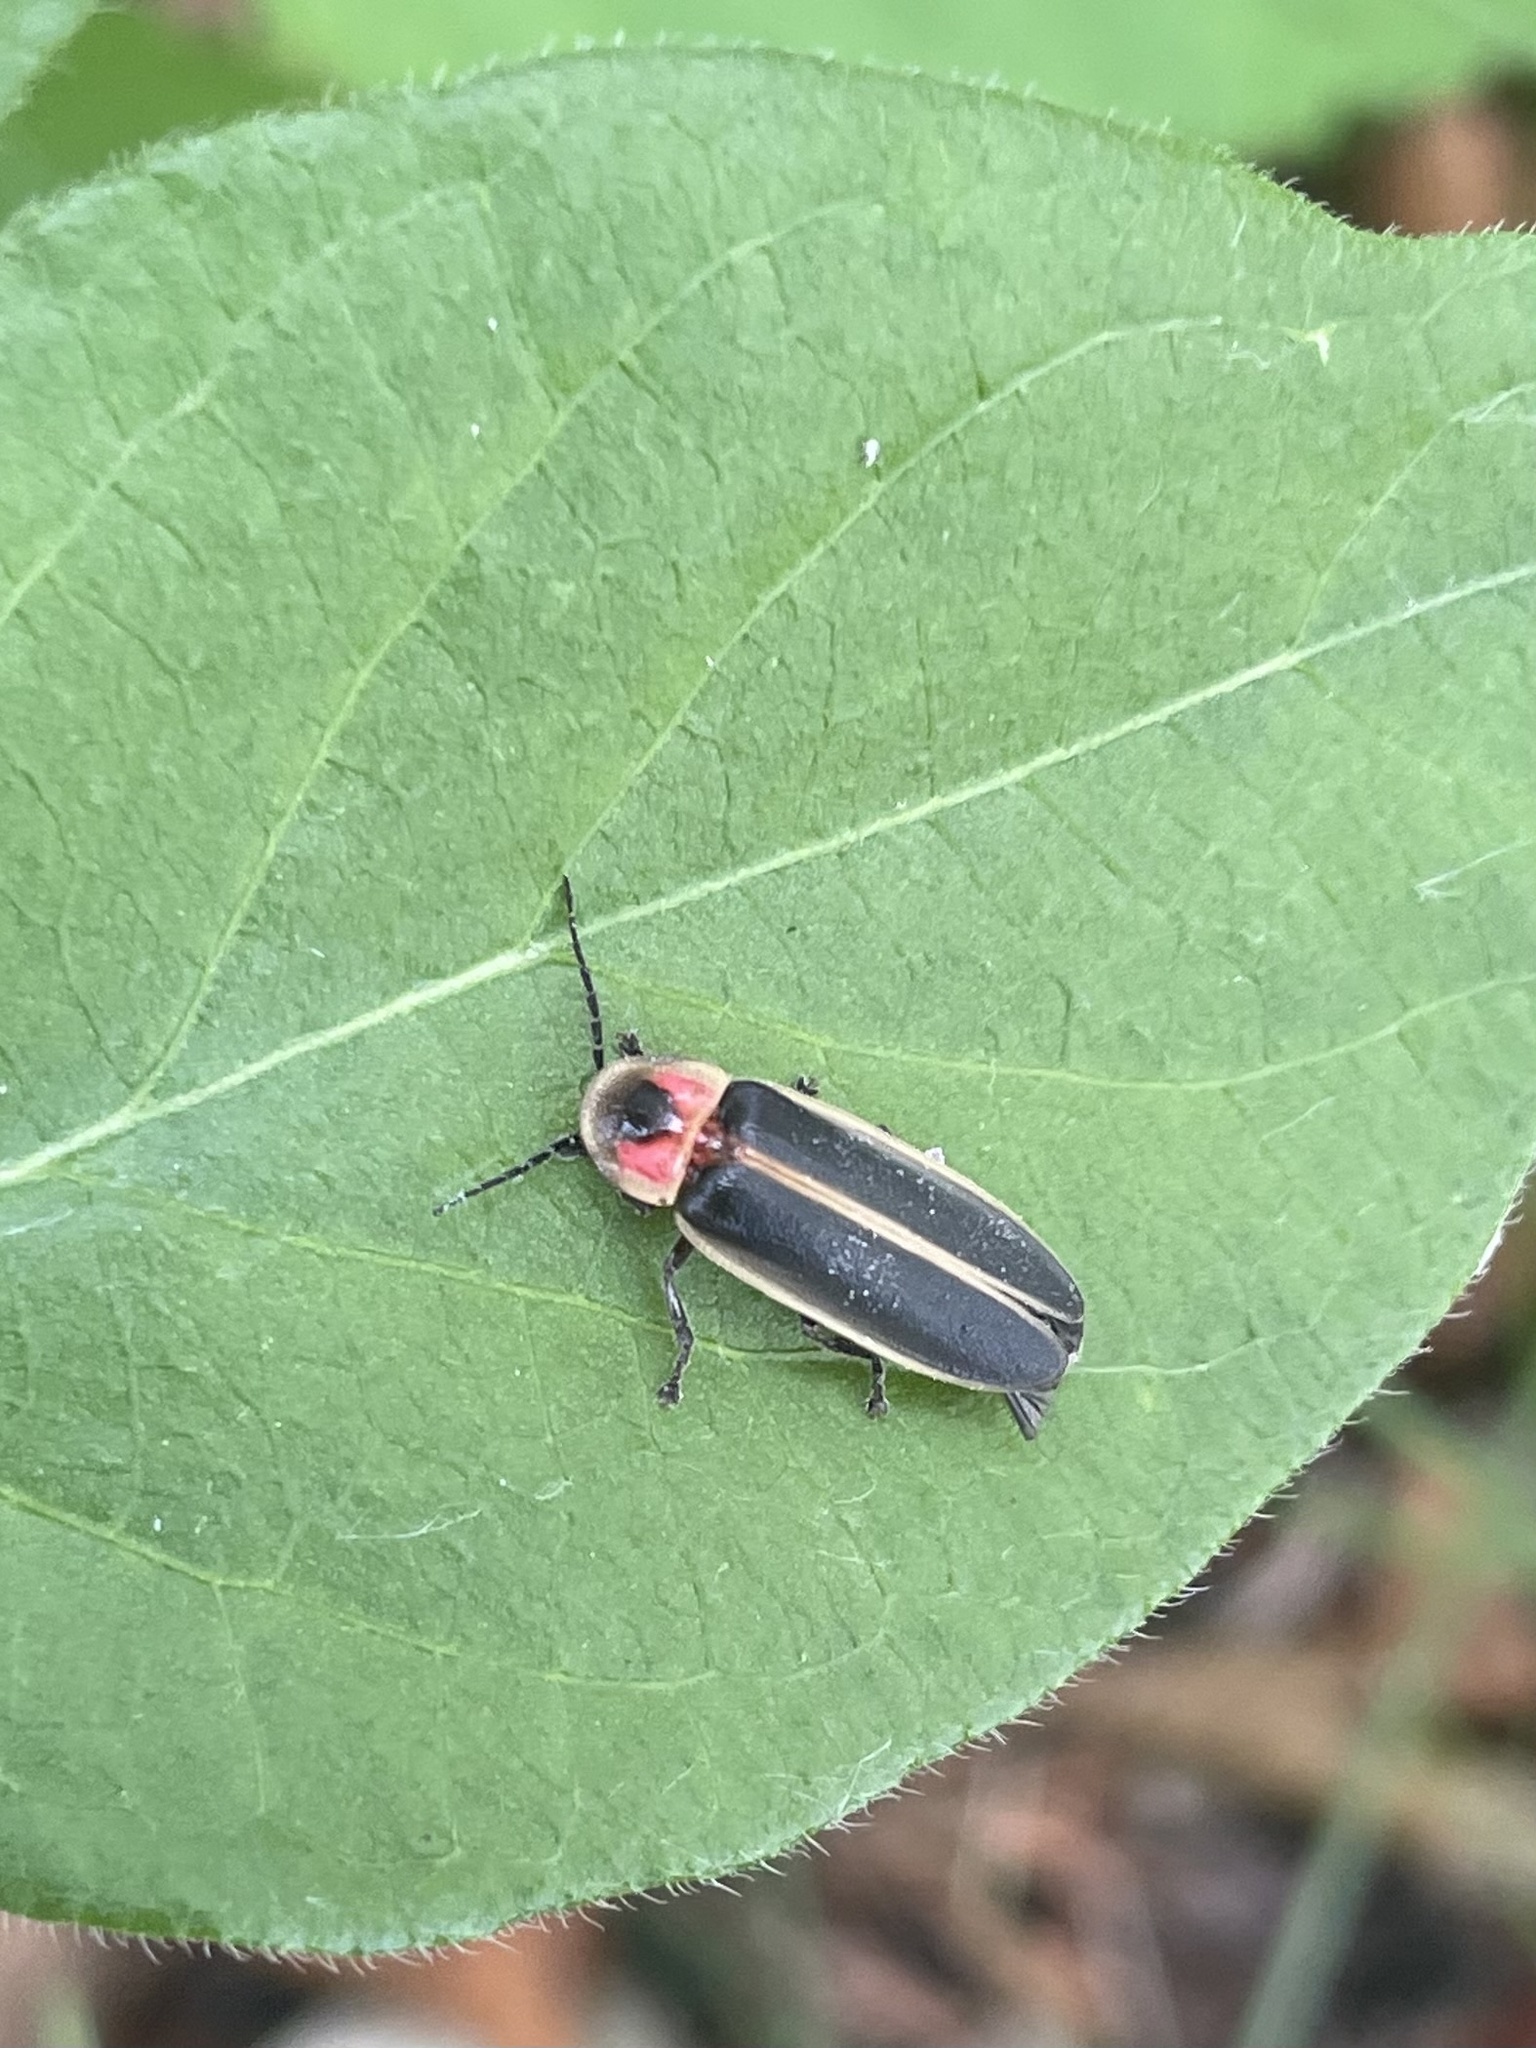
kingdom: Animalia
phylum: Arthropoda
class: Insecta
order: Coleoptera
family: Lampyridae
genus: Photinus
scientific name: Photinus pyralis
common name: Big dipper firefly
